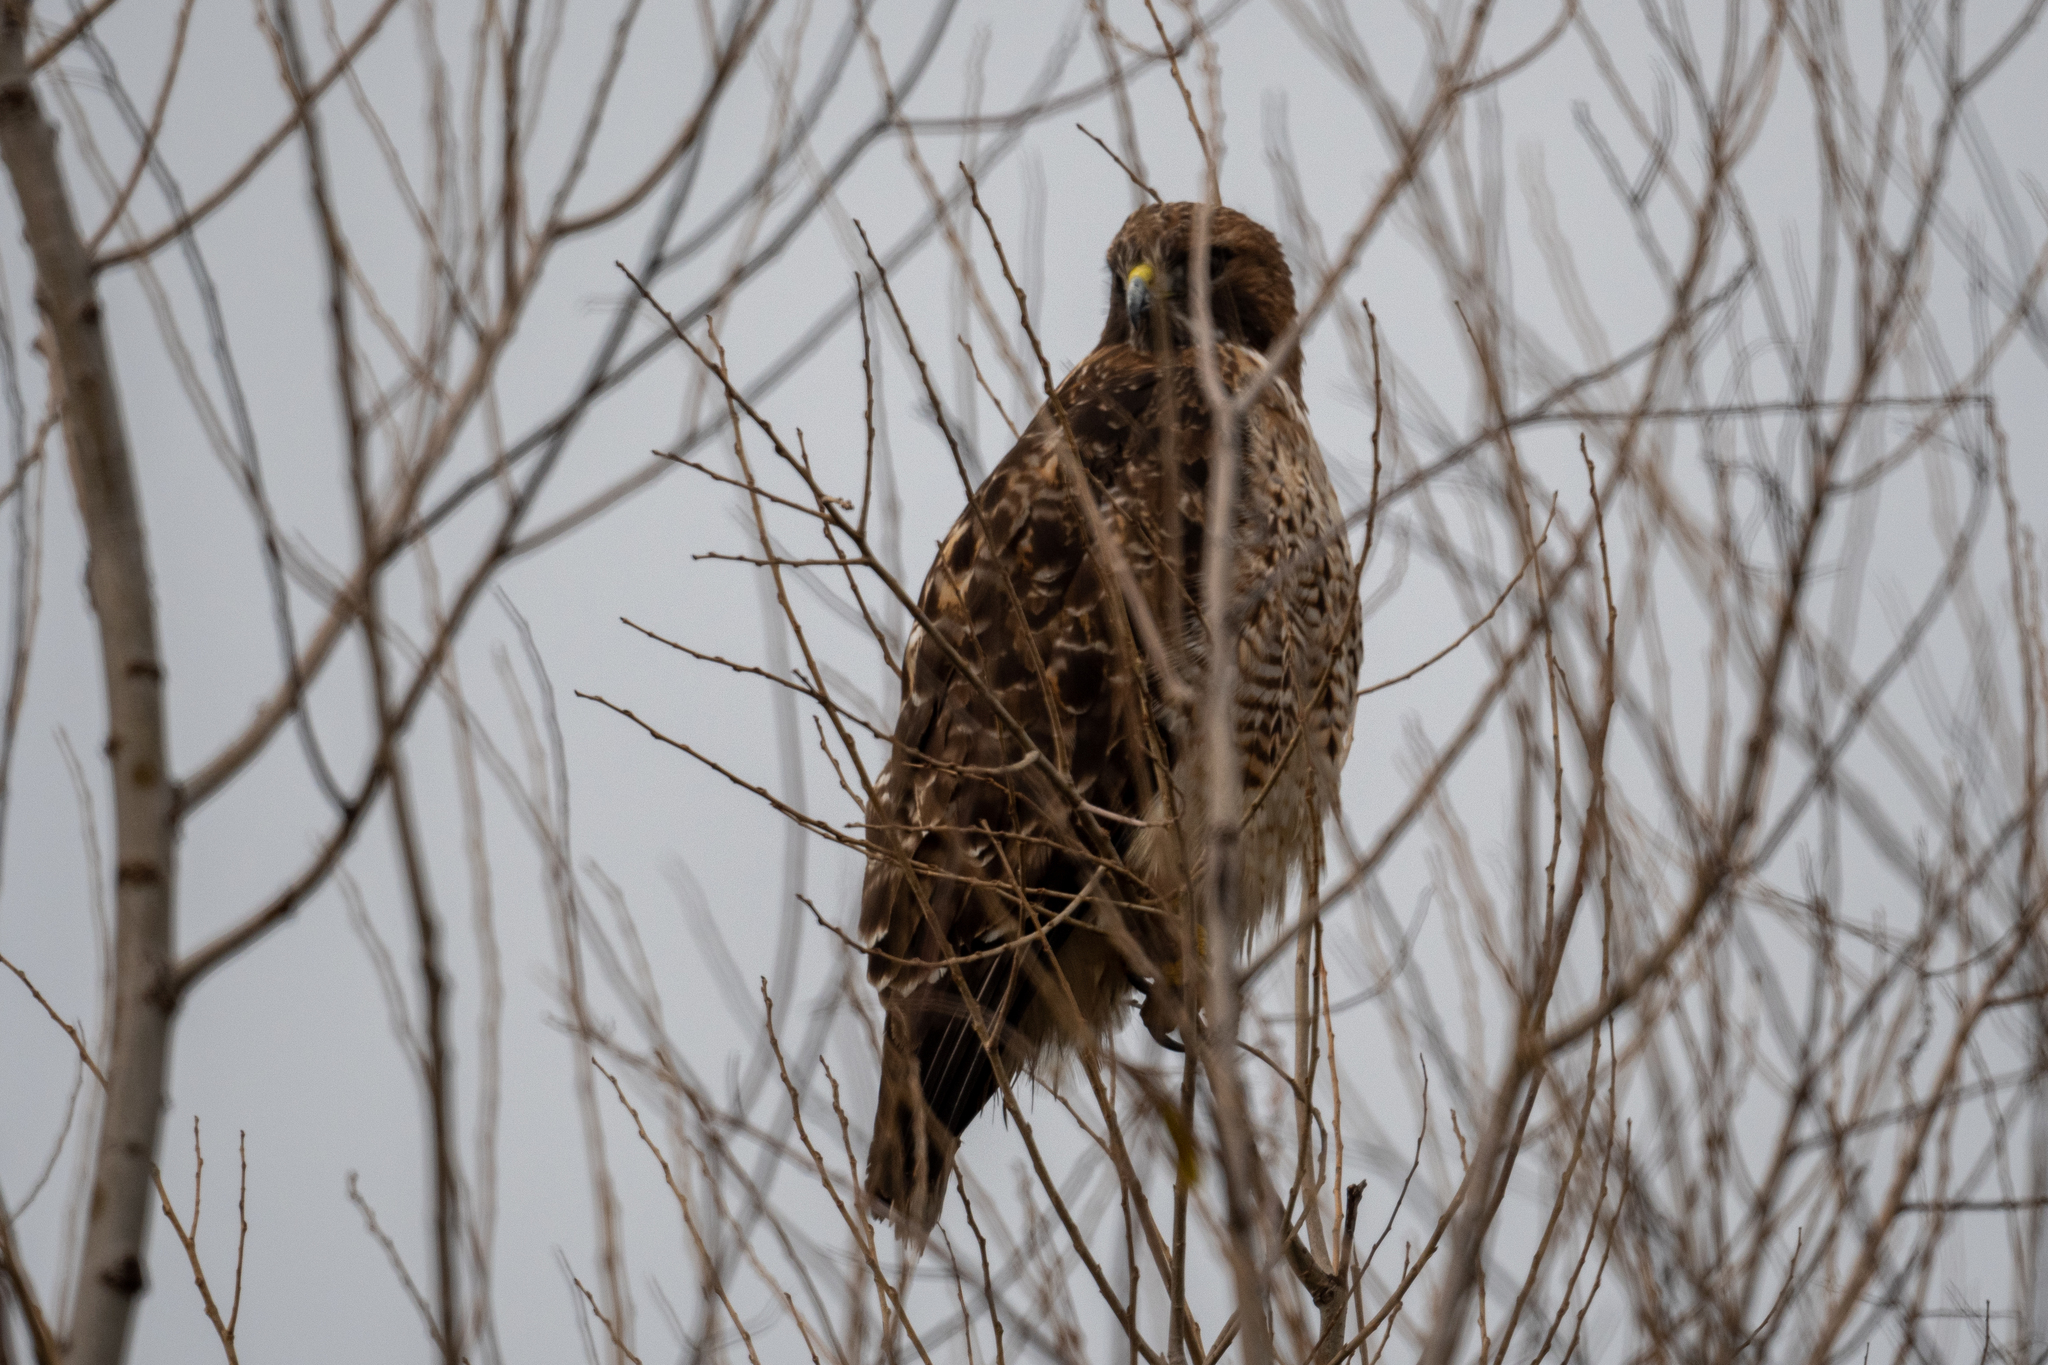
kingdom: Animalia
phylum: Chordata
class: Aves
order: Accipitriformes
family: Accipitridae
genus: Buteo
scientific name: Buteo jamaicensis
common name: Red-tailed hawk
